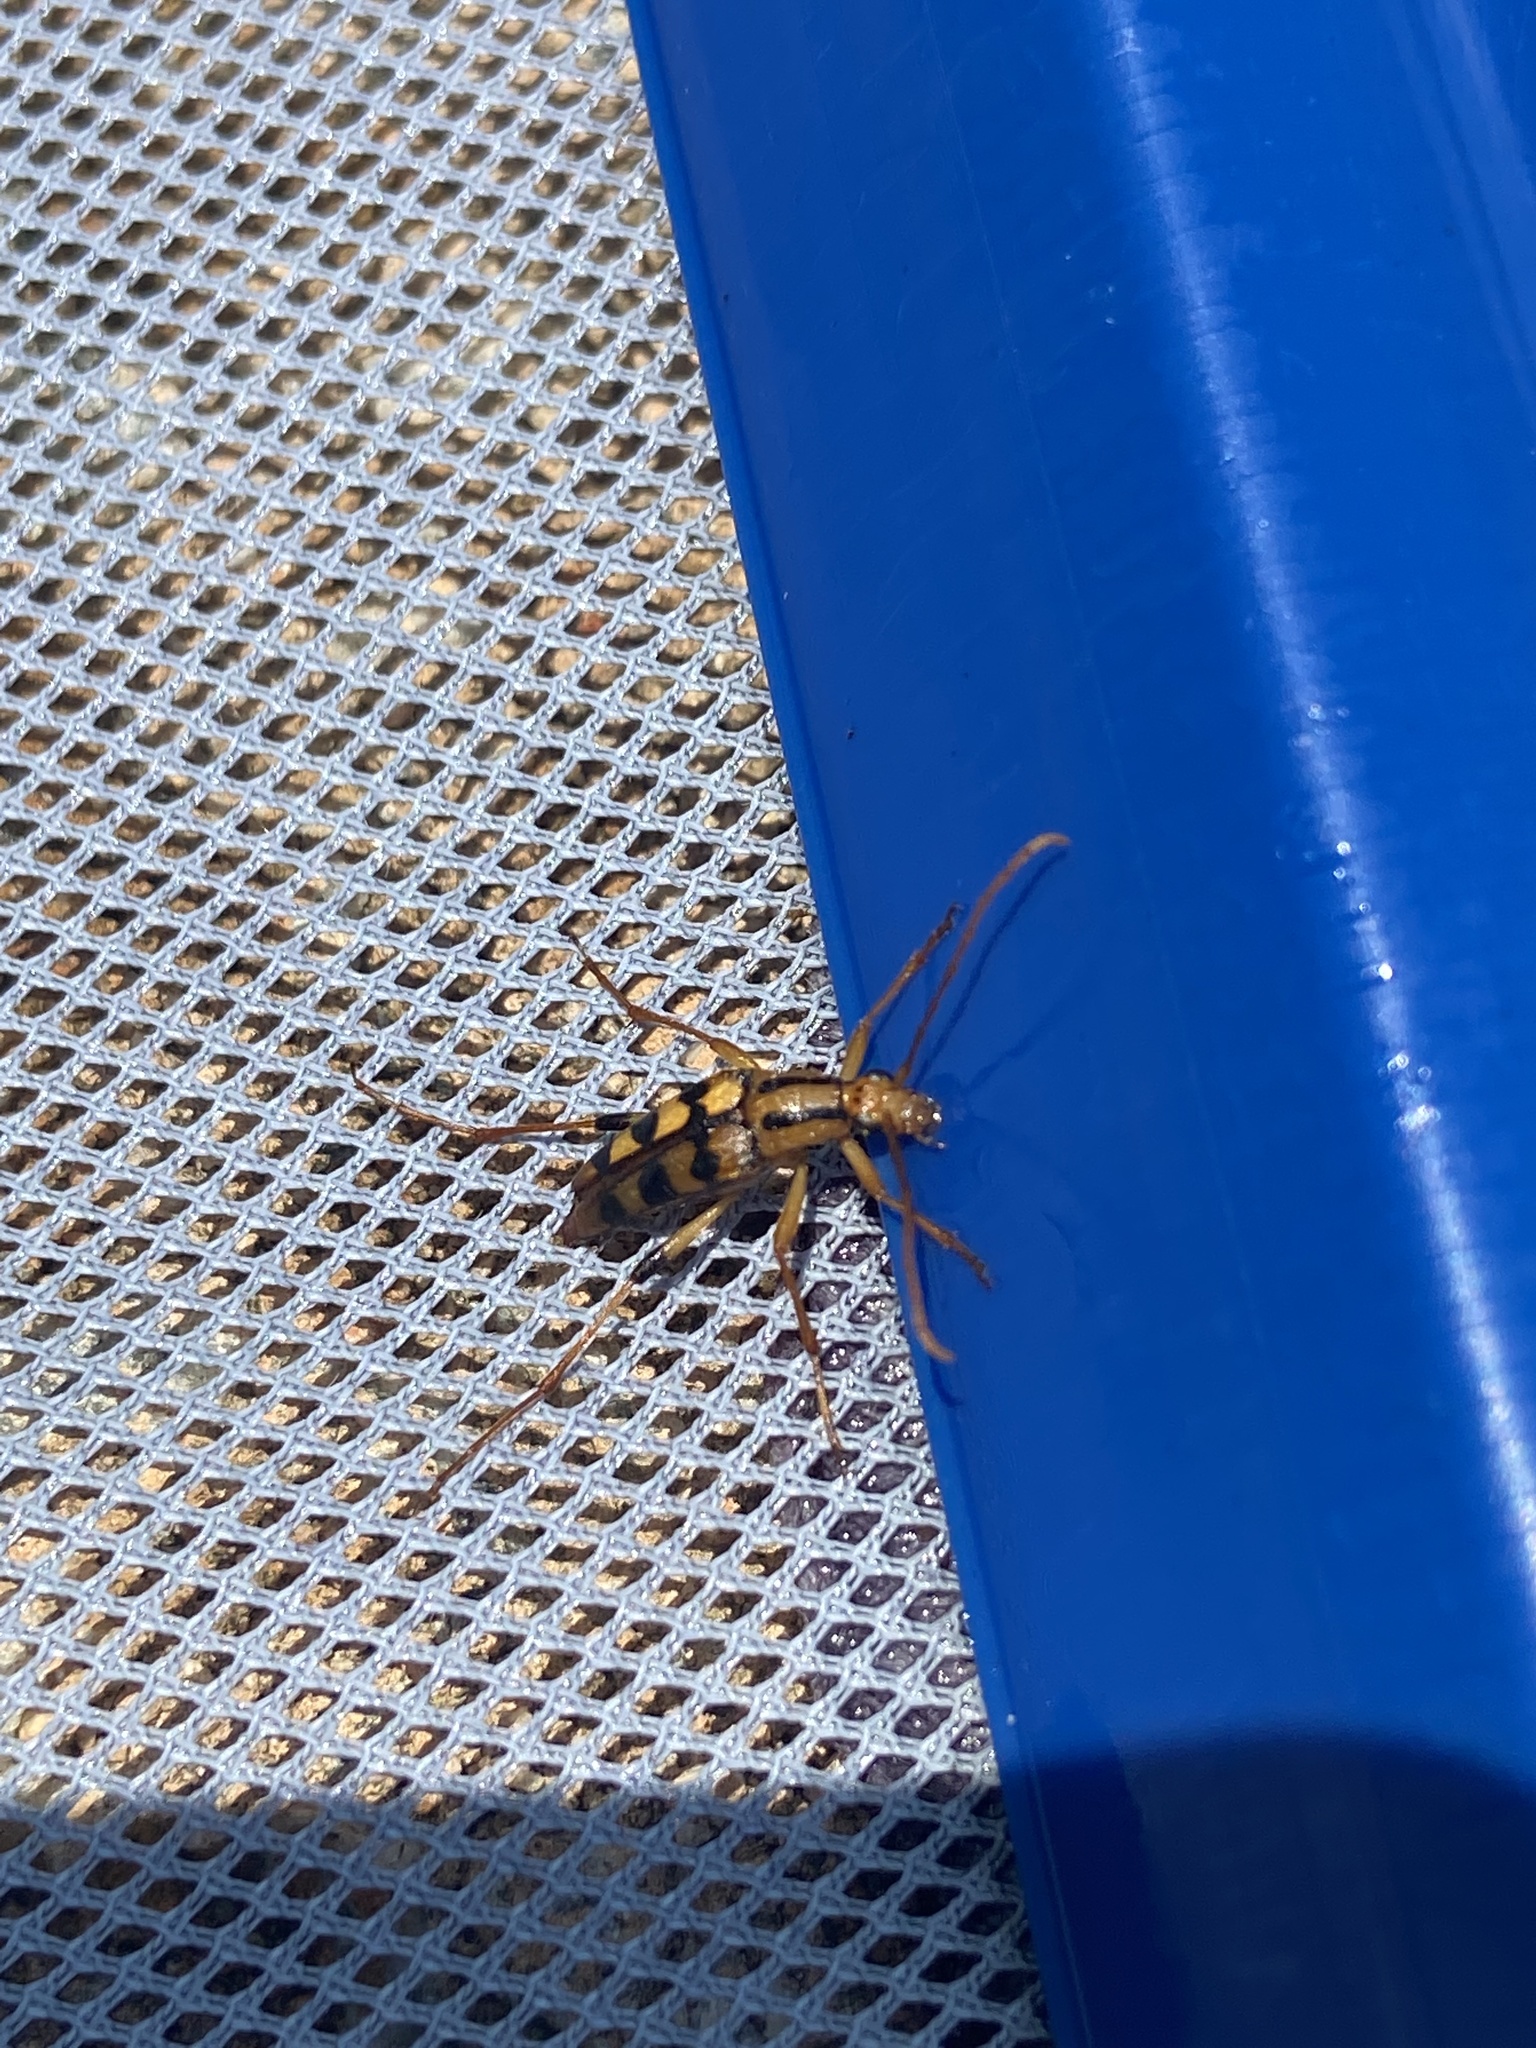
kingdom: Animalia
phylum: Arthropoda
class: Insecta
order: Coleoptera
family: Cerambycidae
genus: Strangalia
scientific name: Strangalia luteicornis
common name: Yellow-horned flower longhorn beetle
